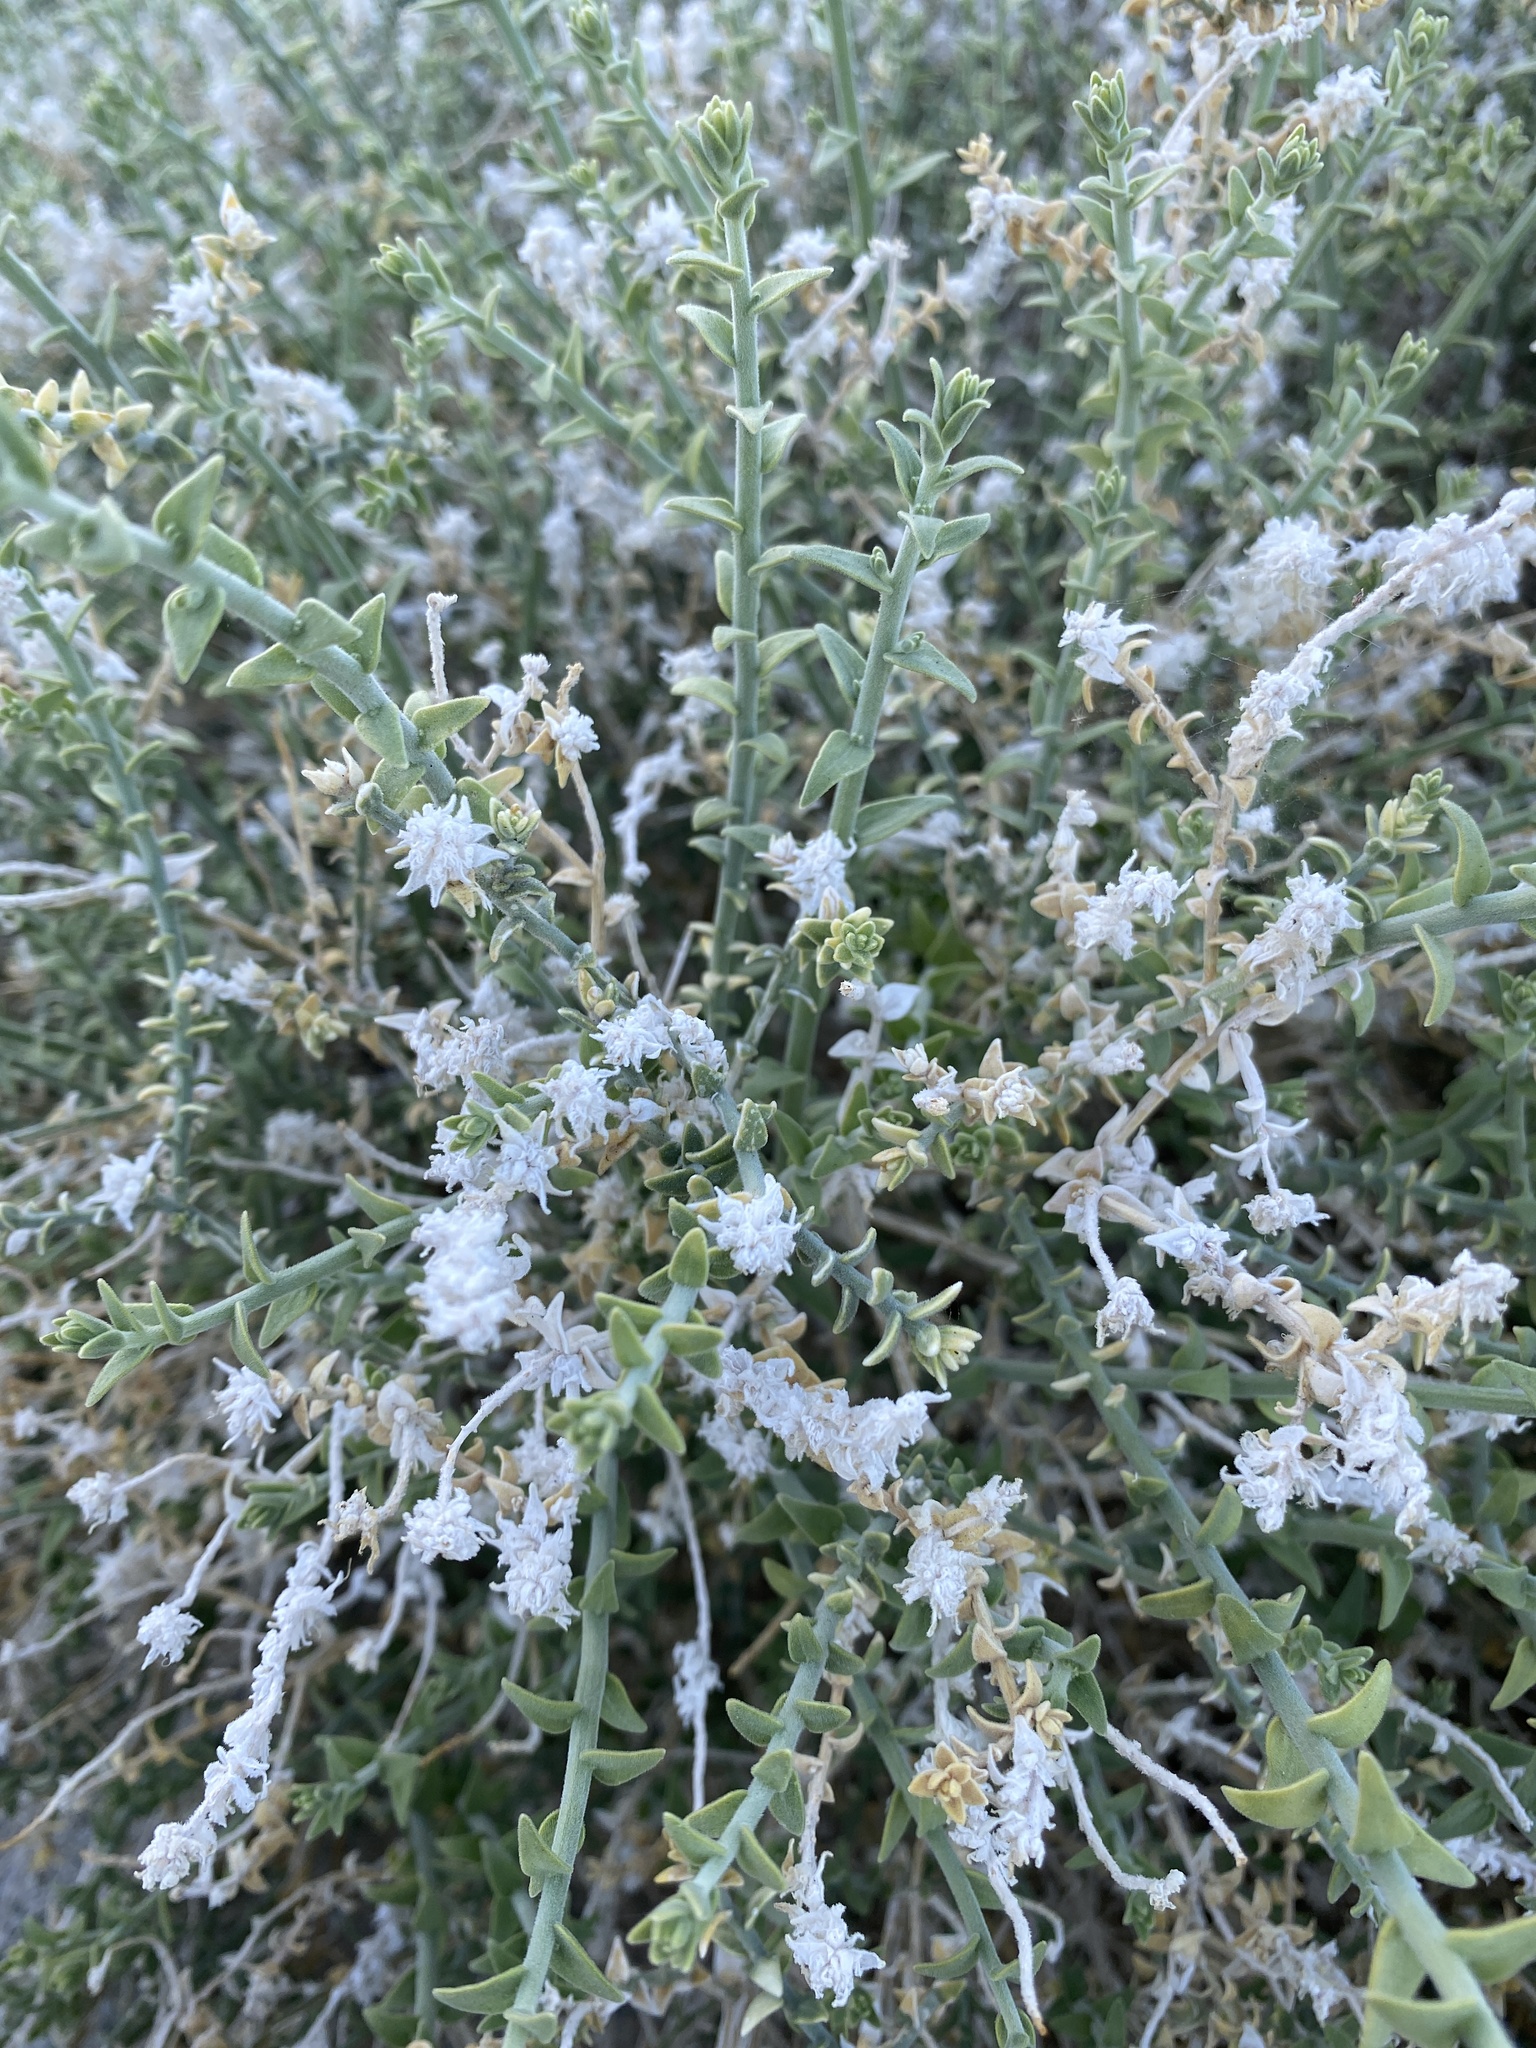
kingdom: Plantae
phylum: Tracheophyta
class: Magnoliopsida
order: Cornales
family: Loasaceae
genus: Petalonyx
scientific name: Petalonyx thurberi
